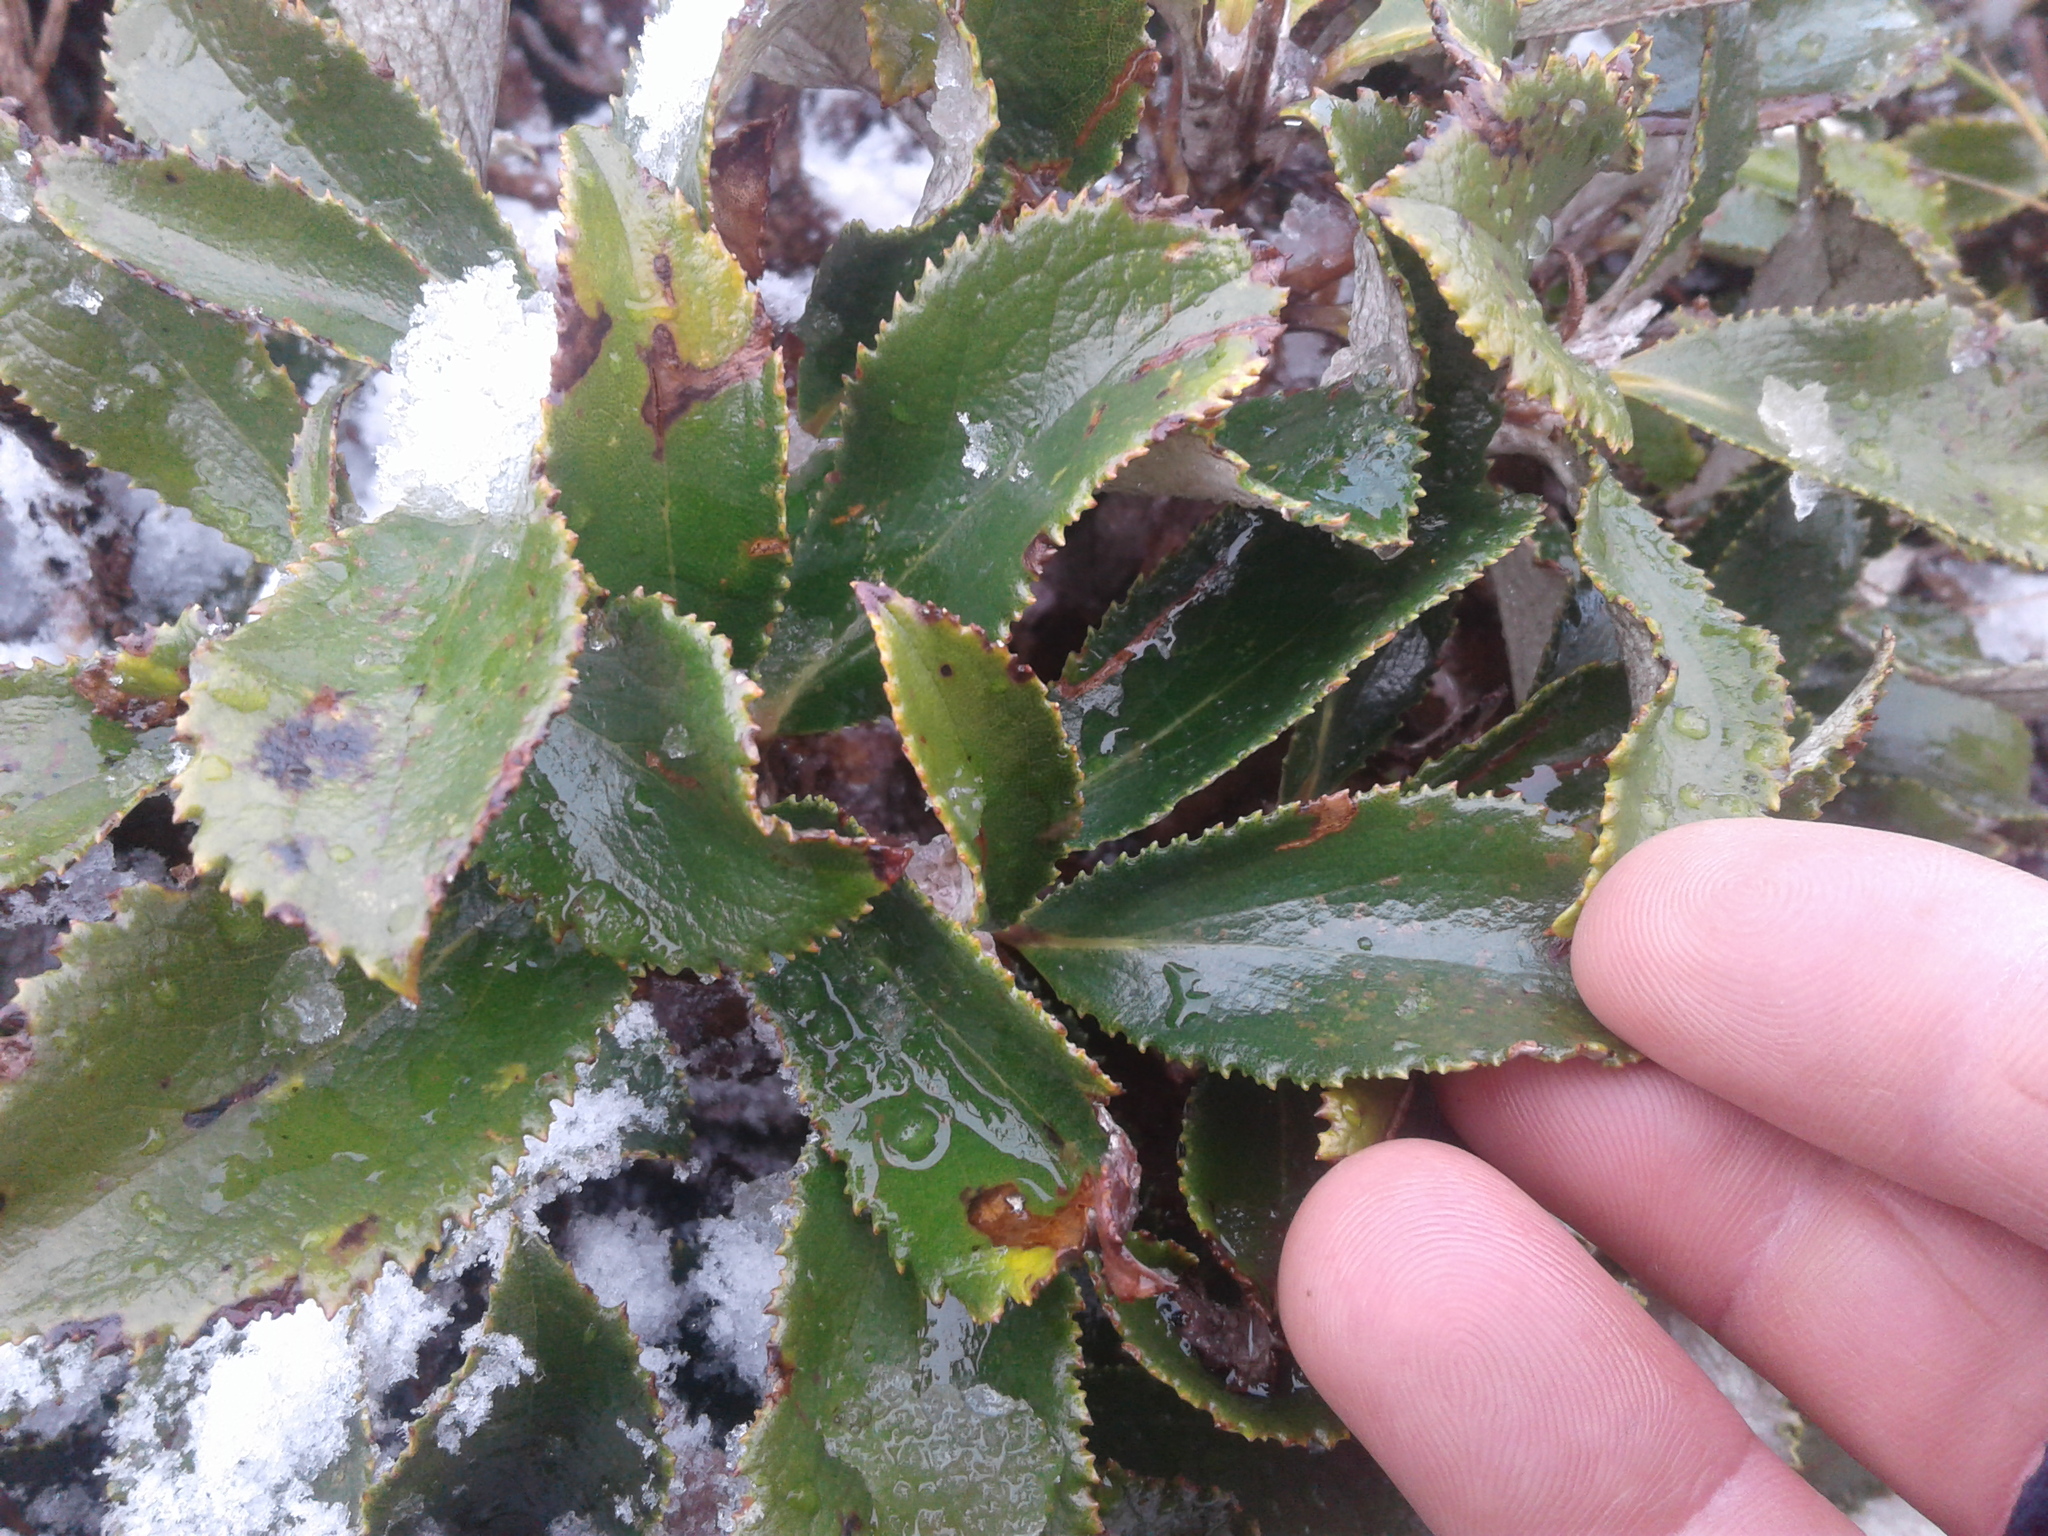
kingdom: Plantae
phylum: Tracheophyta
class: Magnoliopsida
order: Asterales
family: Asteraceae
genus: Macrolearia
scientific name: Macrolearia colensoi
